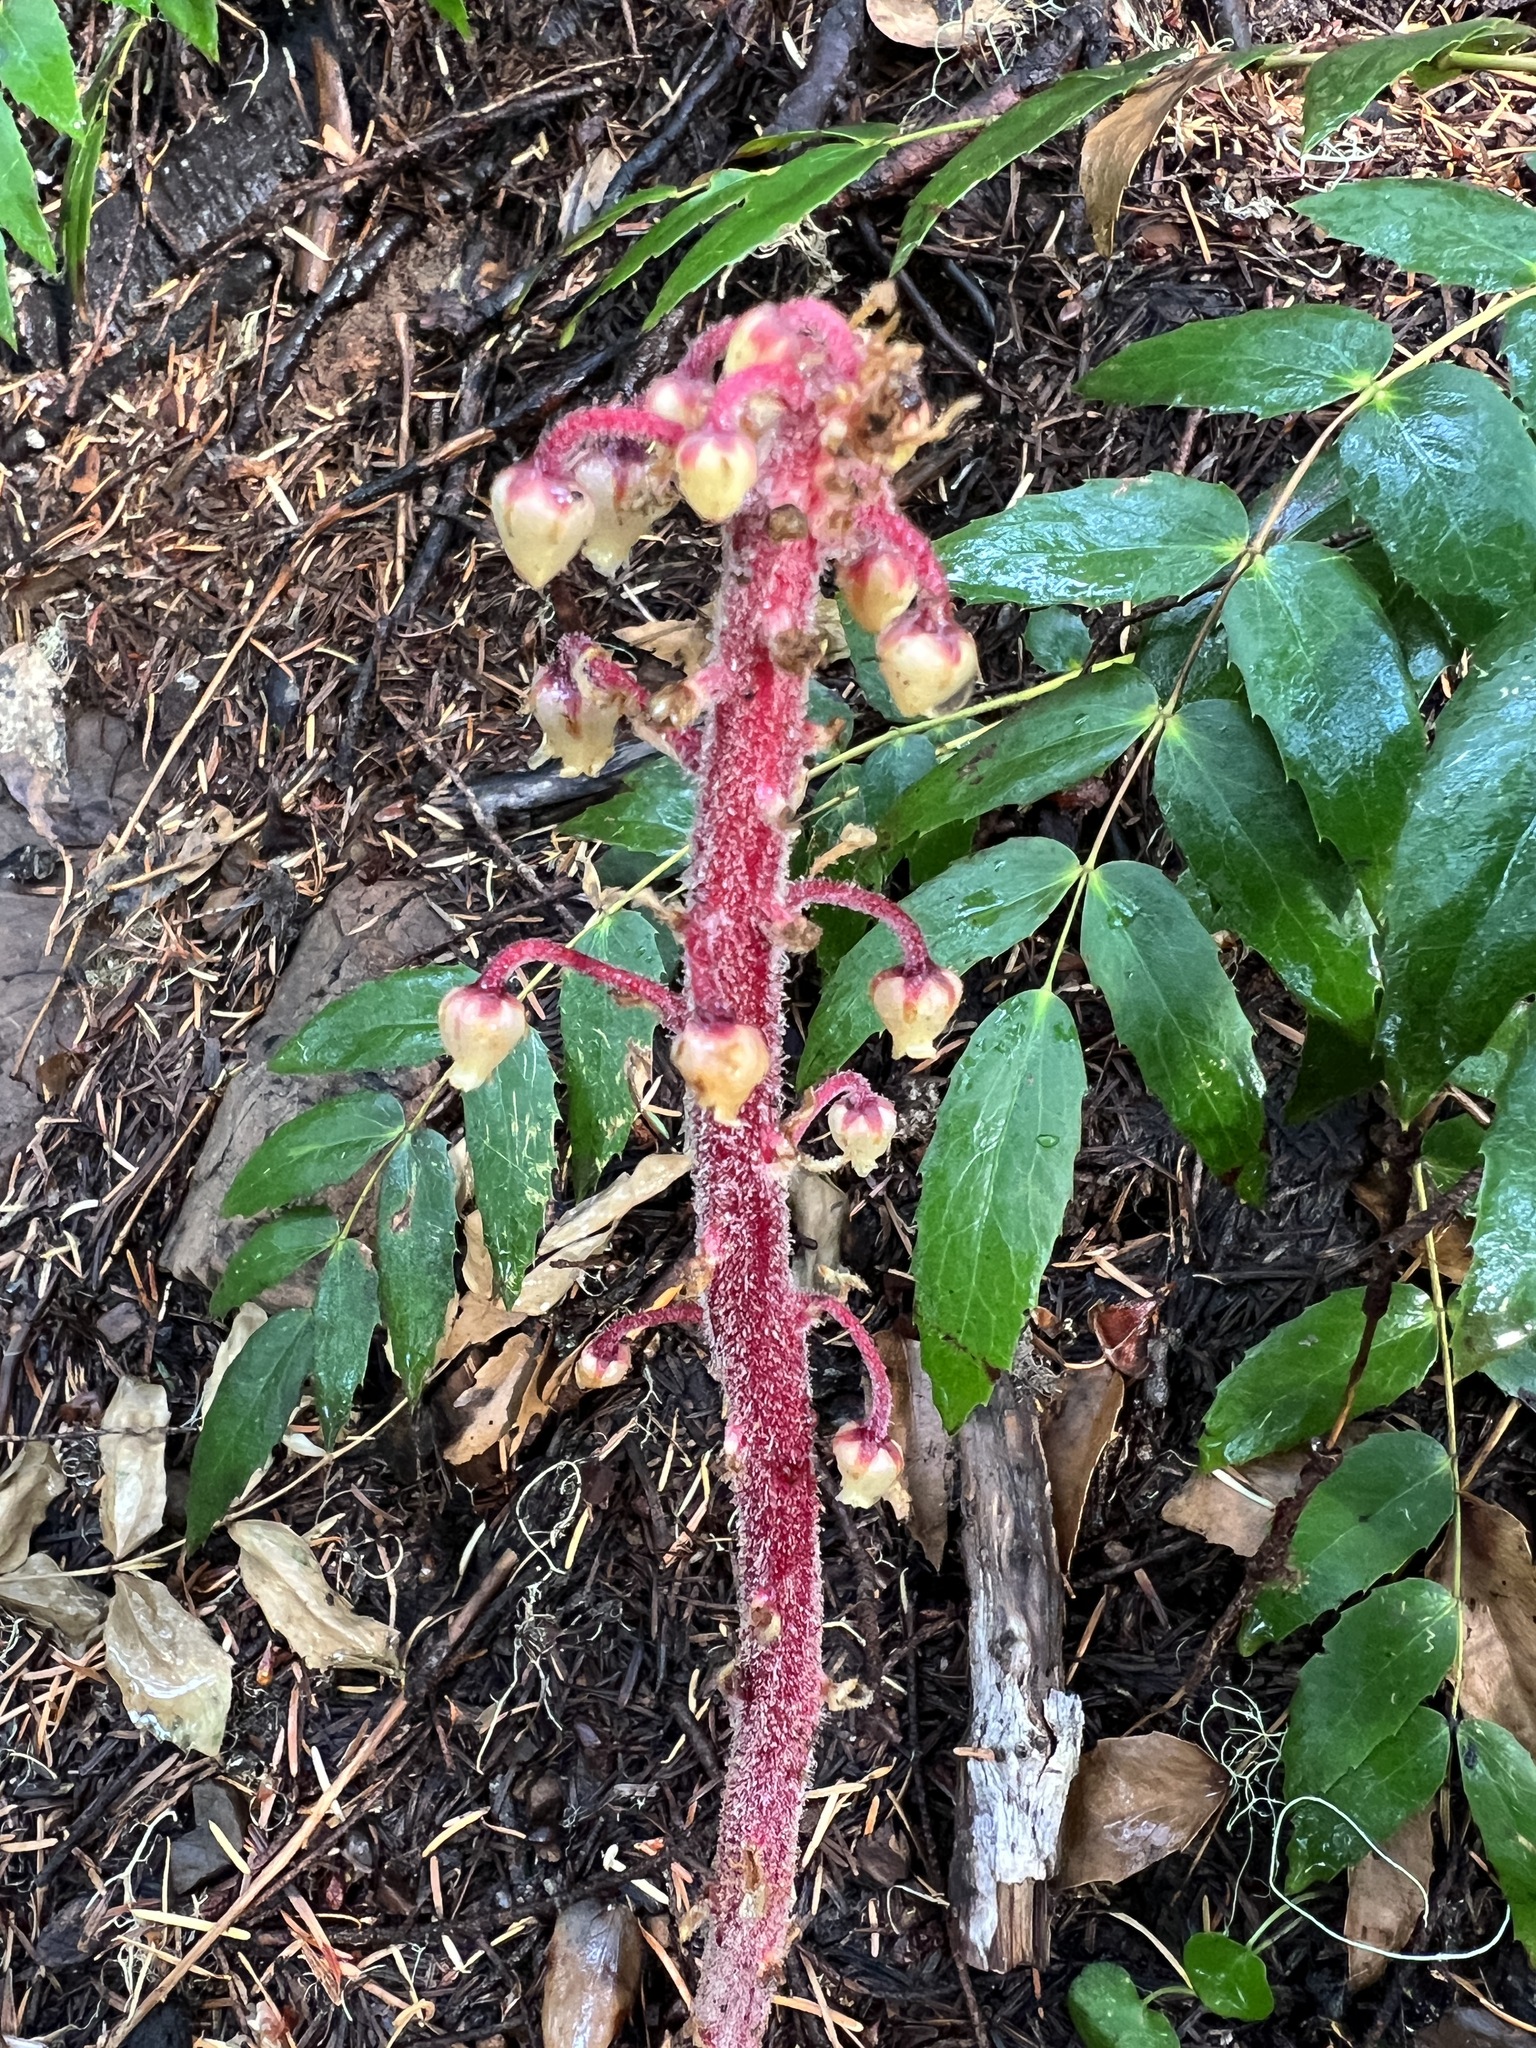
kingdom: Plantae
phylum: Tracheophyta
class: Magnoliopsida
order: Ericales
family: Ericaceae
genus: Pterospora
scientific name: Pterospora andromedea
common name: Giant bird's-nest
